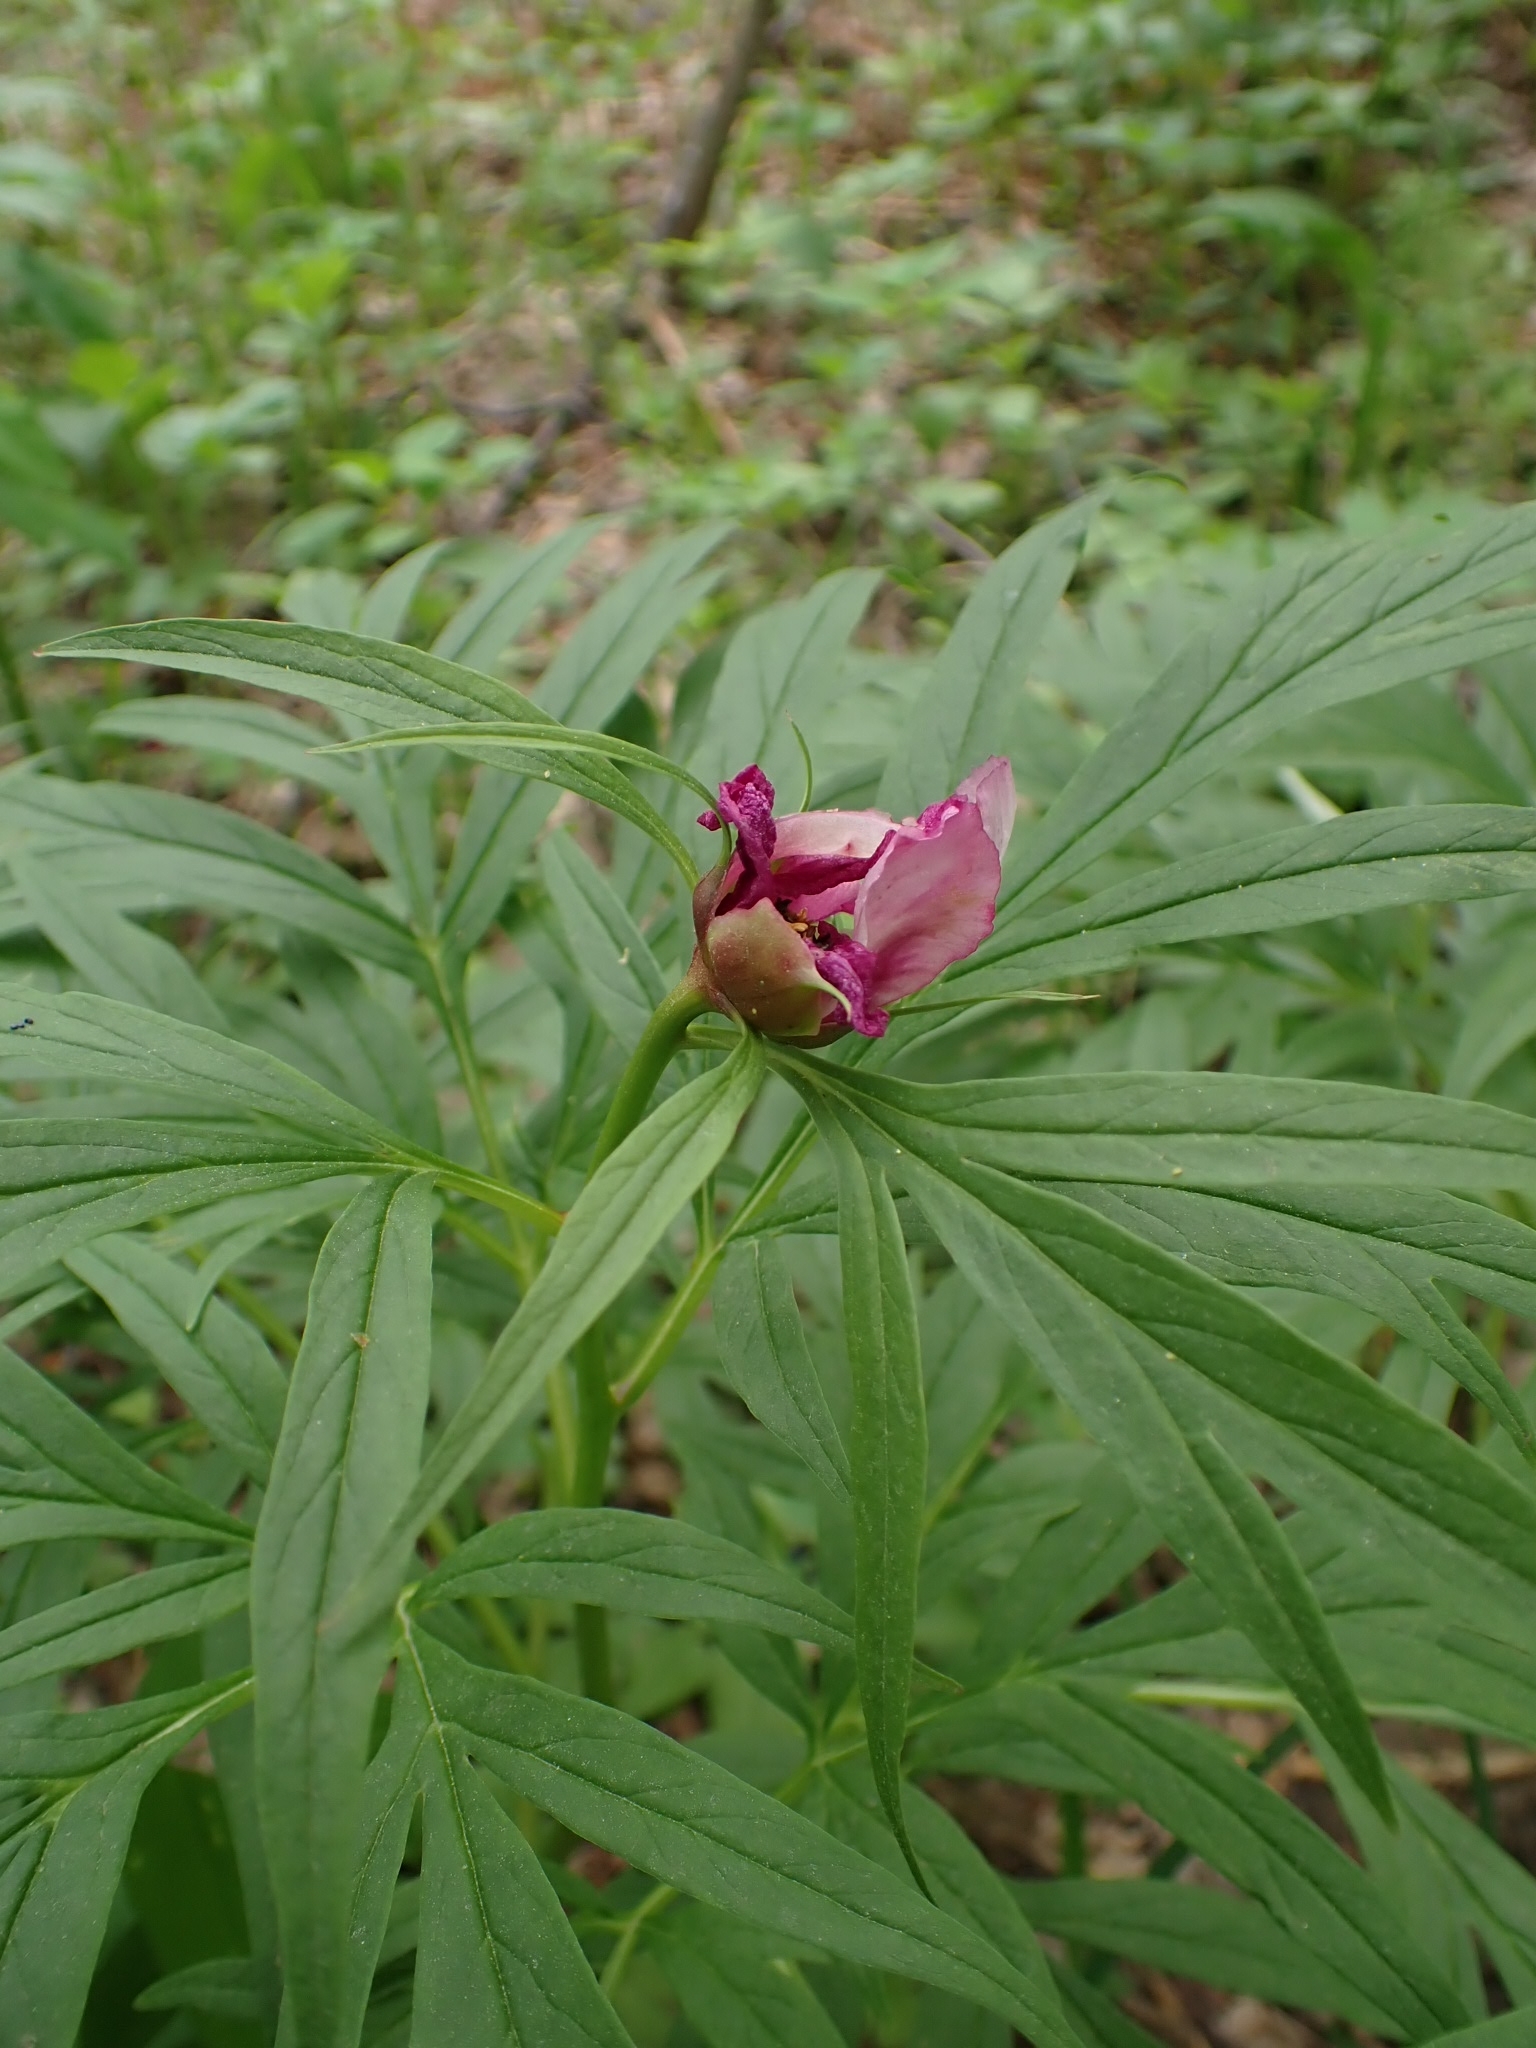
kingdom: Plantae
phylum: Tracheophyta
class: Magnoliopsida
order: Saxifragales
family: Paeoniaceae
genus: Paeonia
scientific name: Paeonia anomala
